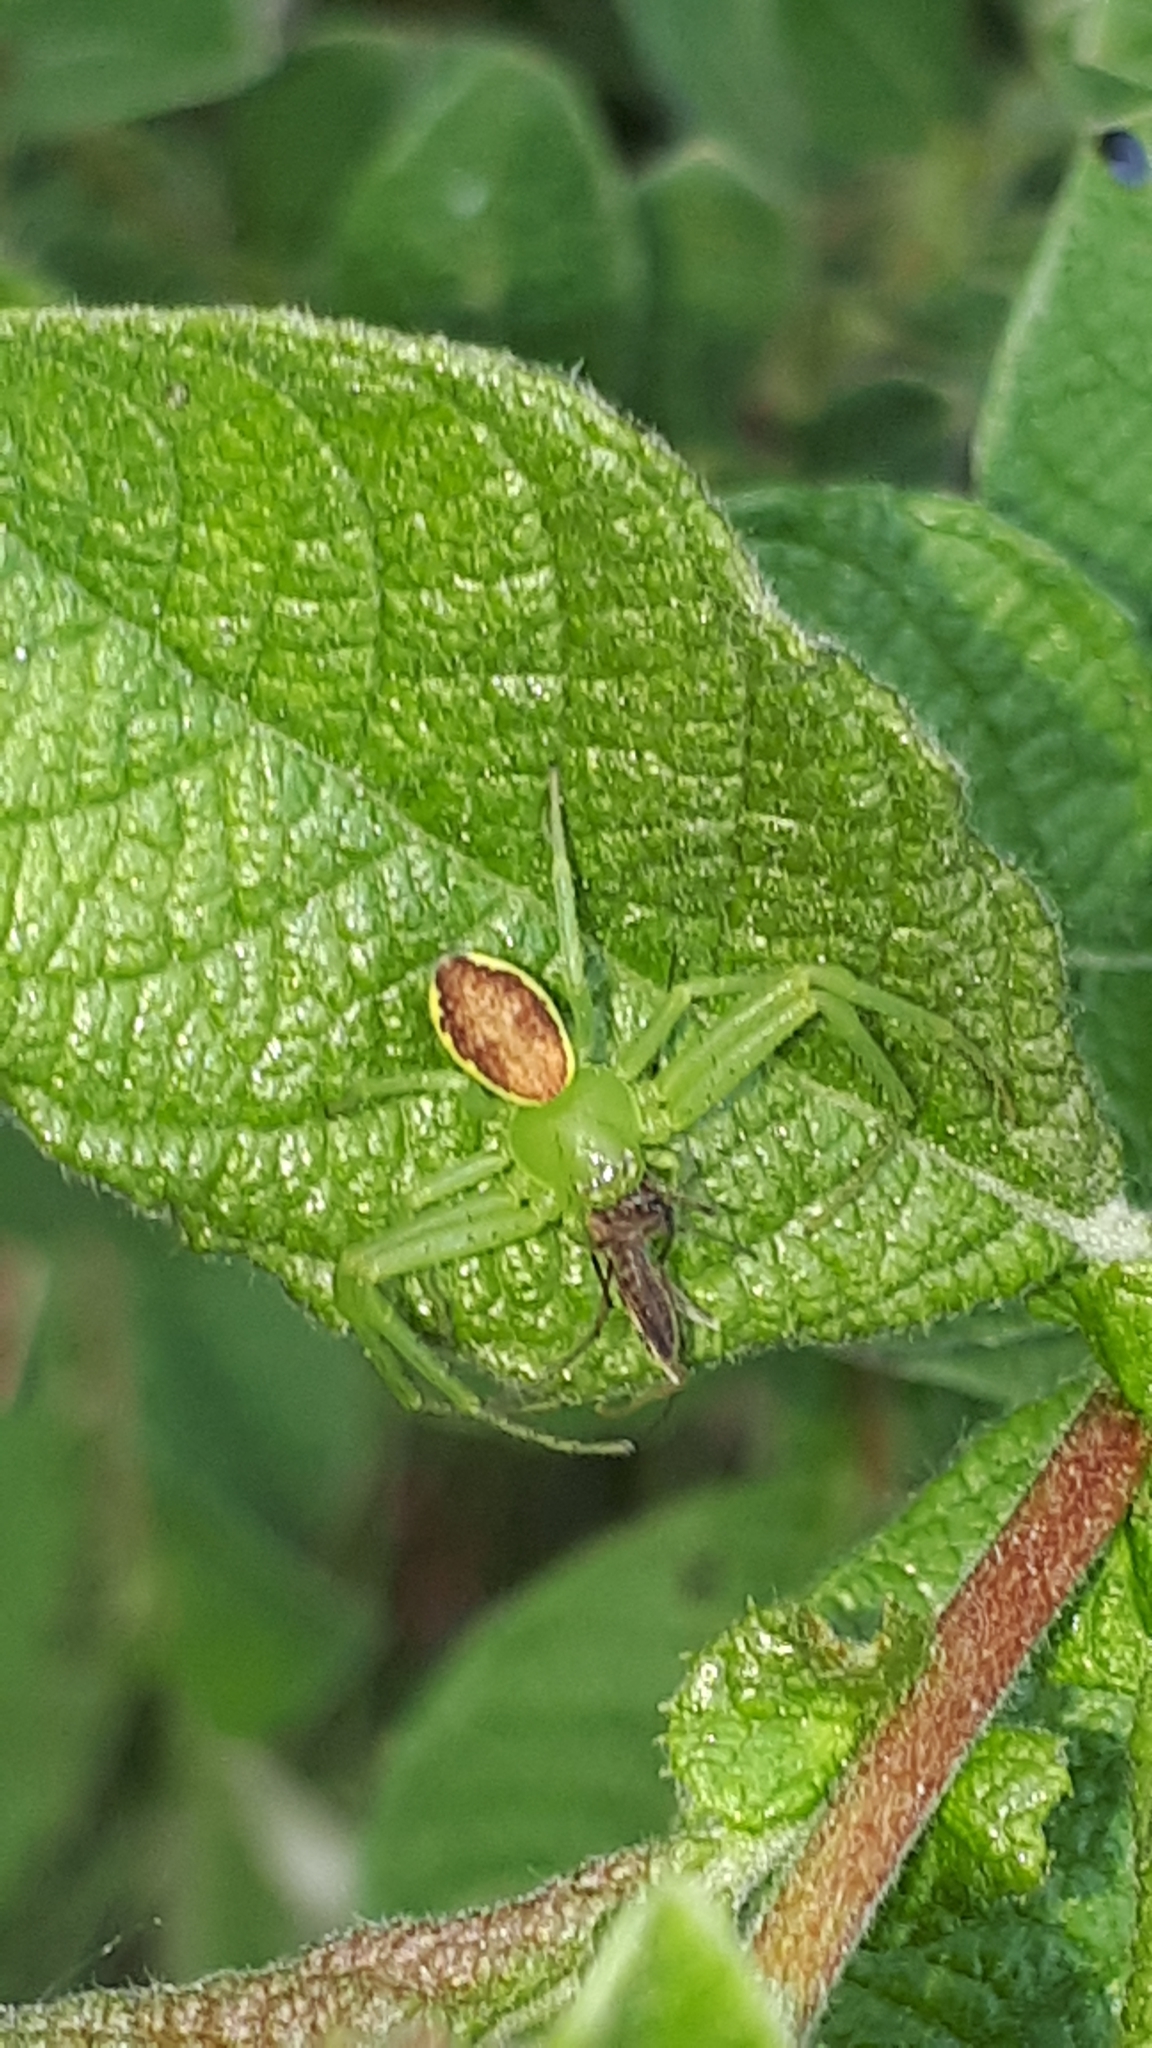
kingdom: Animalia
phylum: Arthropoda
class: Arachnida
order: Araneae
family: Thomisidae
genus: Diaea
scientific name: Diaea dorsata
